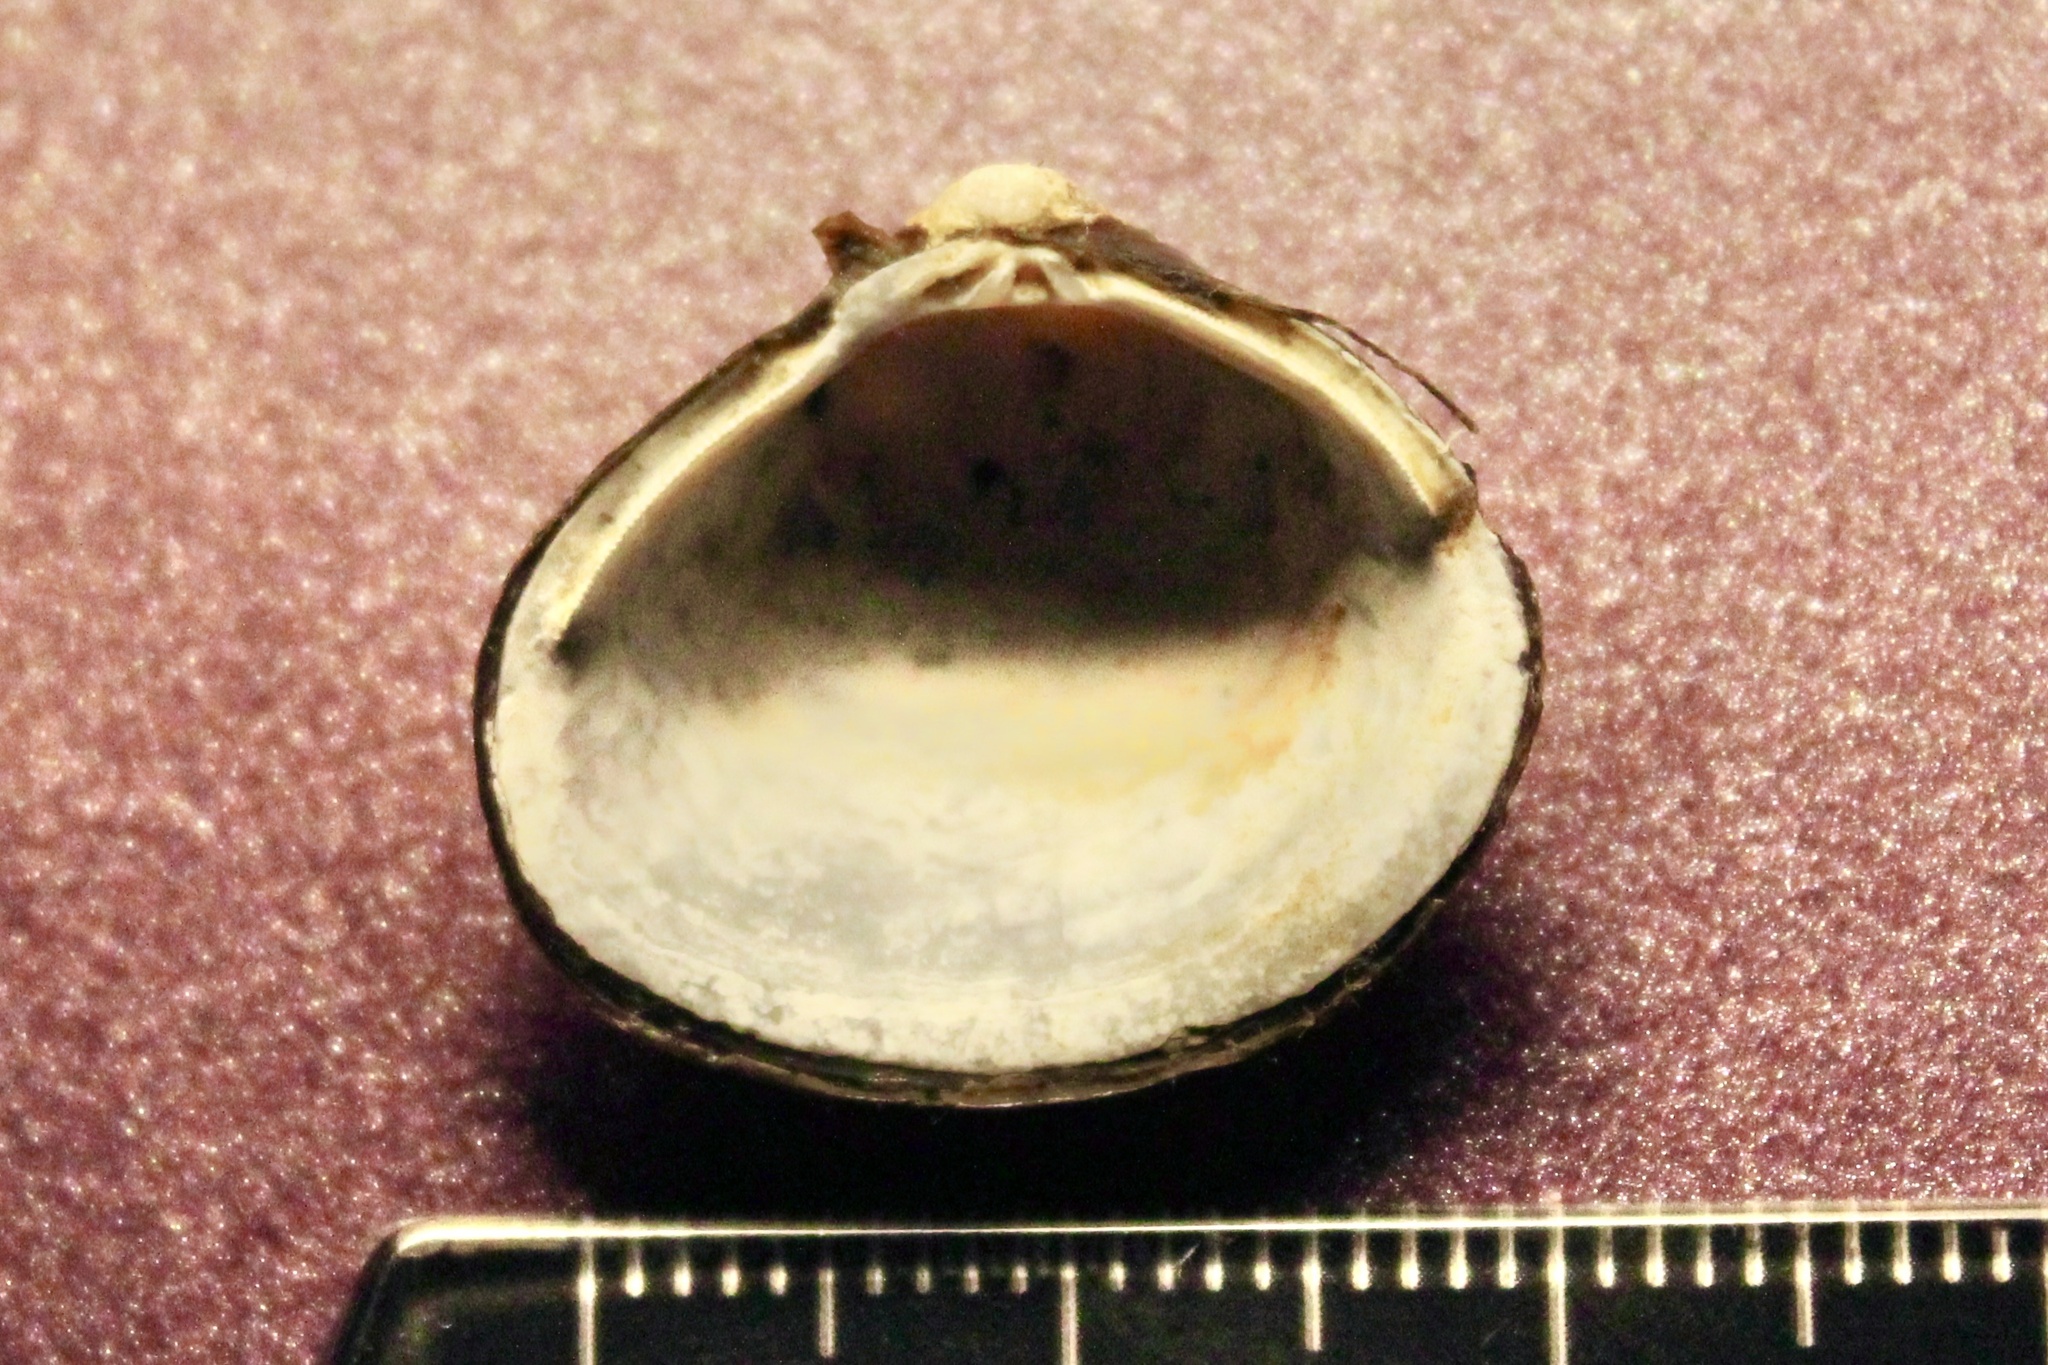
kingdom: Animalia
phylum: Mollusca
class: Bivalvia
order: Venerida
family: Cyrenidae
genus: Corbicula
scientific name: Corbicula fluminea
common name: Asian clam
